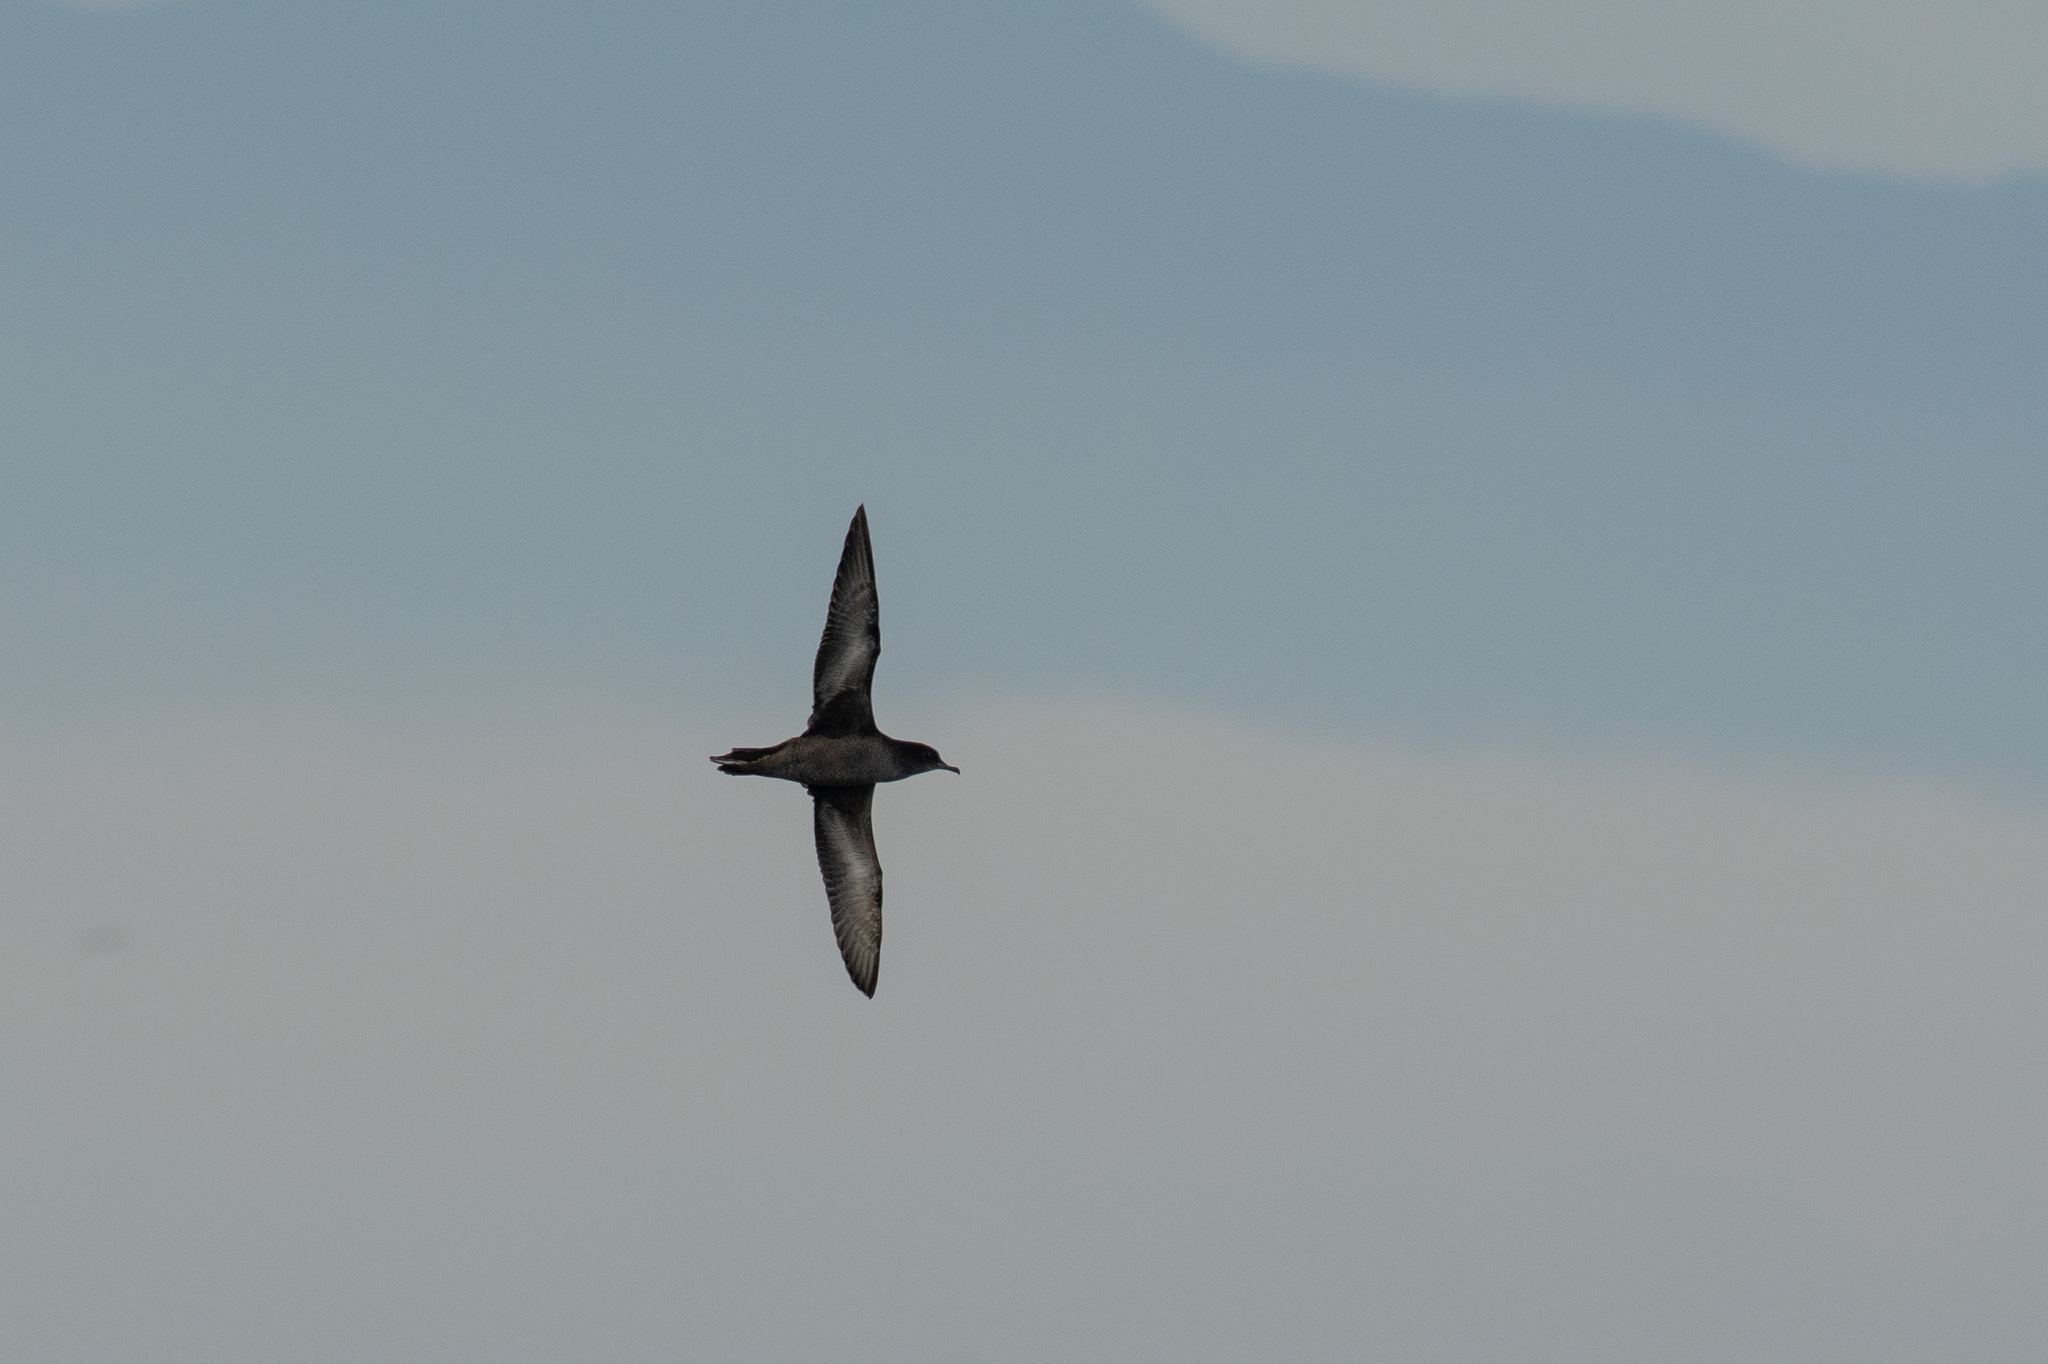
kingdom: Animalia
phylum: Chordata
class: Aves
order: Procellariiformes
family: Procellariidae
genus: Puffinus
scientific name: Puffinus tenuirostris
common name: Short-tailed shearwater
